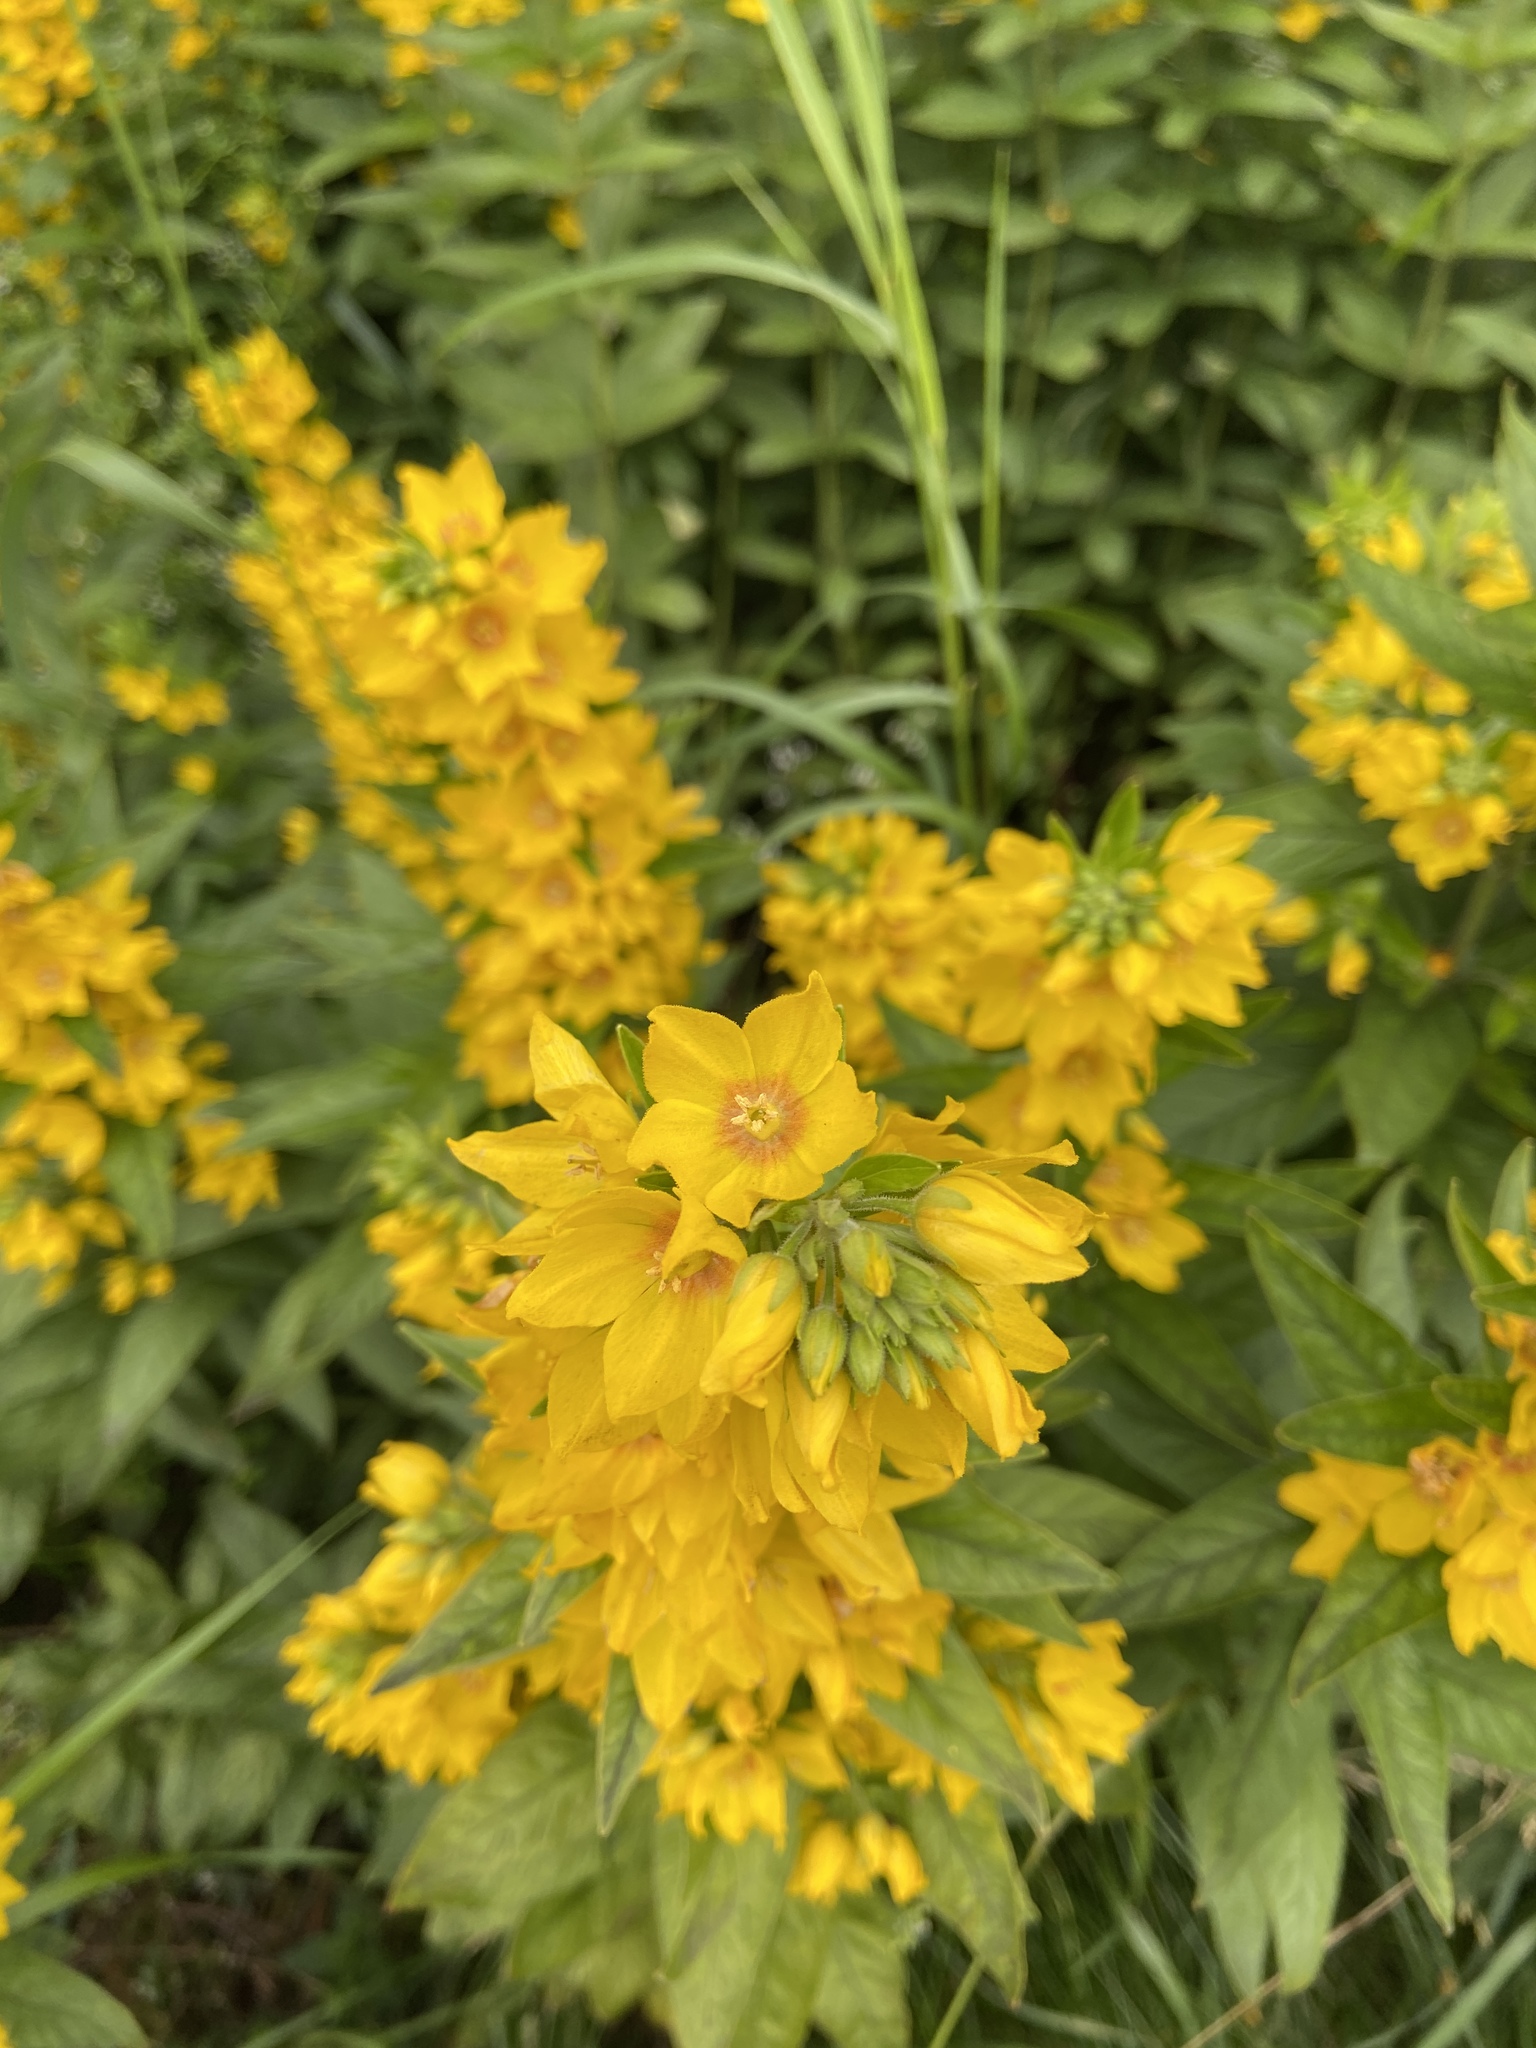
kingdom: Plantae
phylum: Tracheophyta
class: Magnoliopsida
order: Ericales
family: Primulaceae
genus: Lysimachia
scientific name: Lysimachia punctata
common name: Dotted loosestrife
